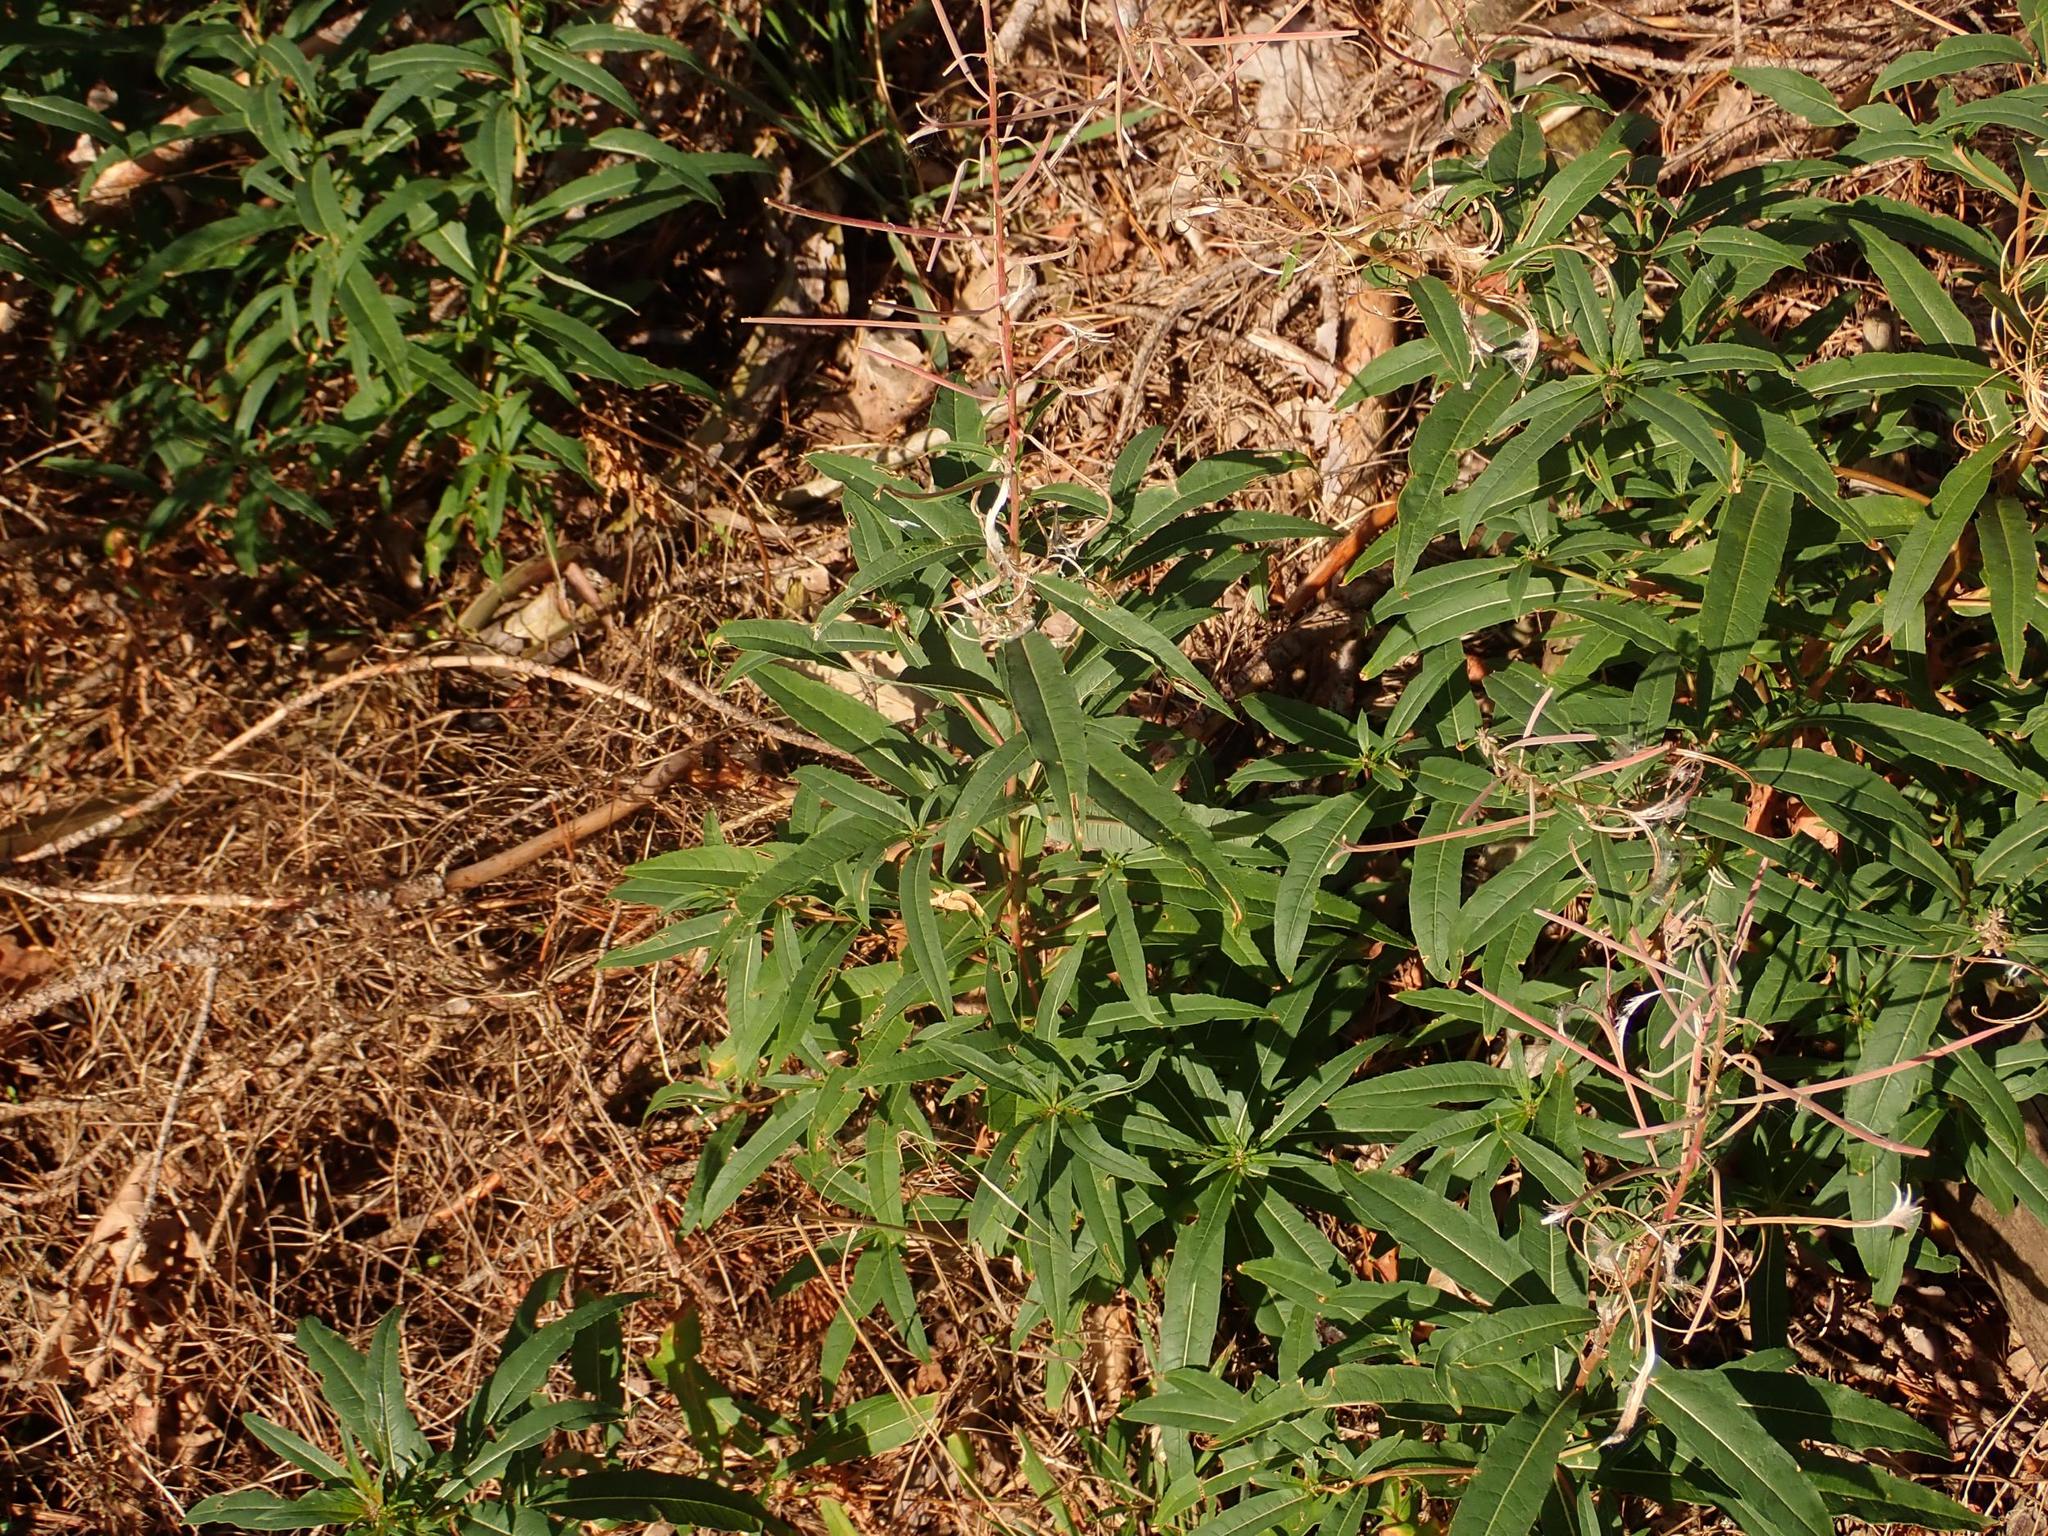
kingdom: Plantae
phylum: Tracheophyta
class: Magnoliopsida
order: Myrtales
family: Onagraceae
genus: Chamaenerion
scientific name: Chamaenerion angustifolium
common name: Fireweed
